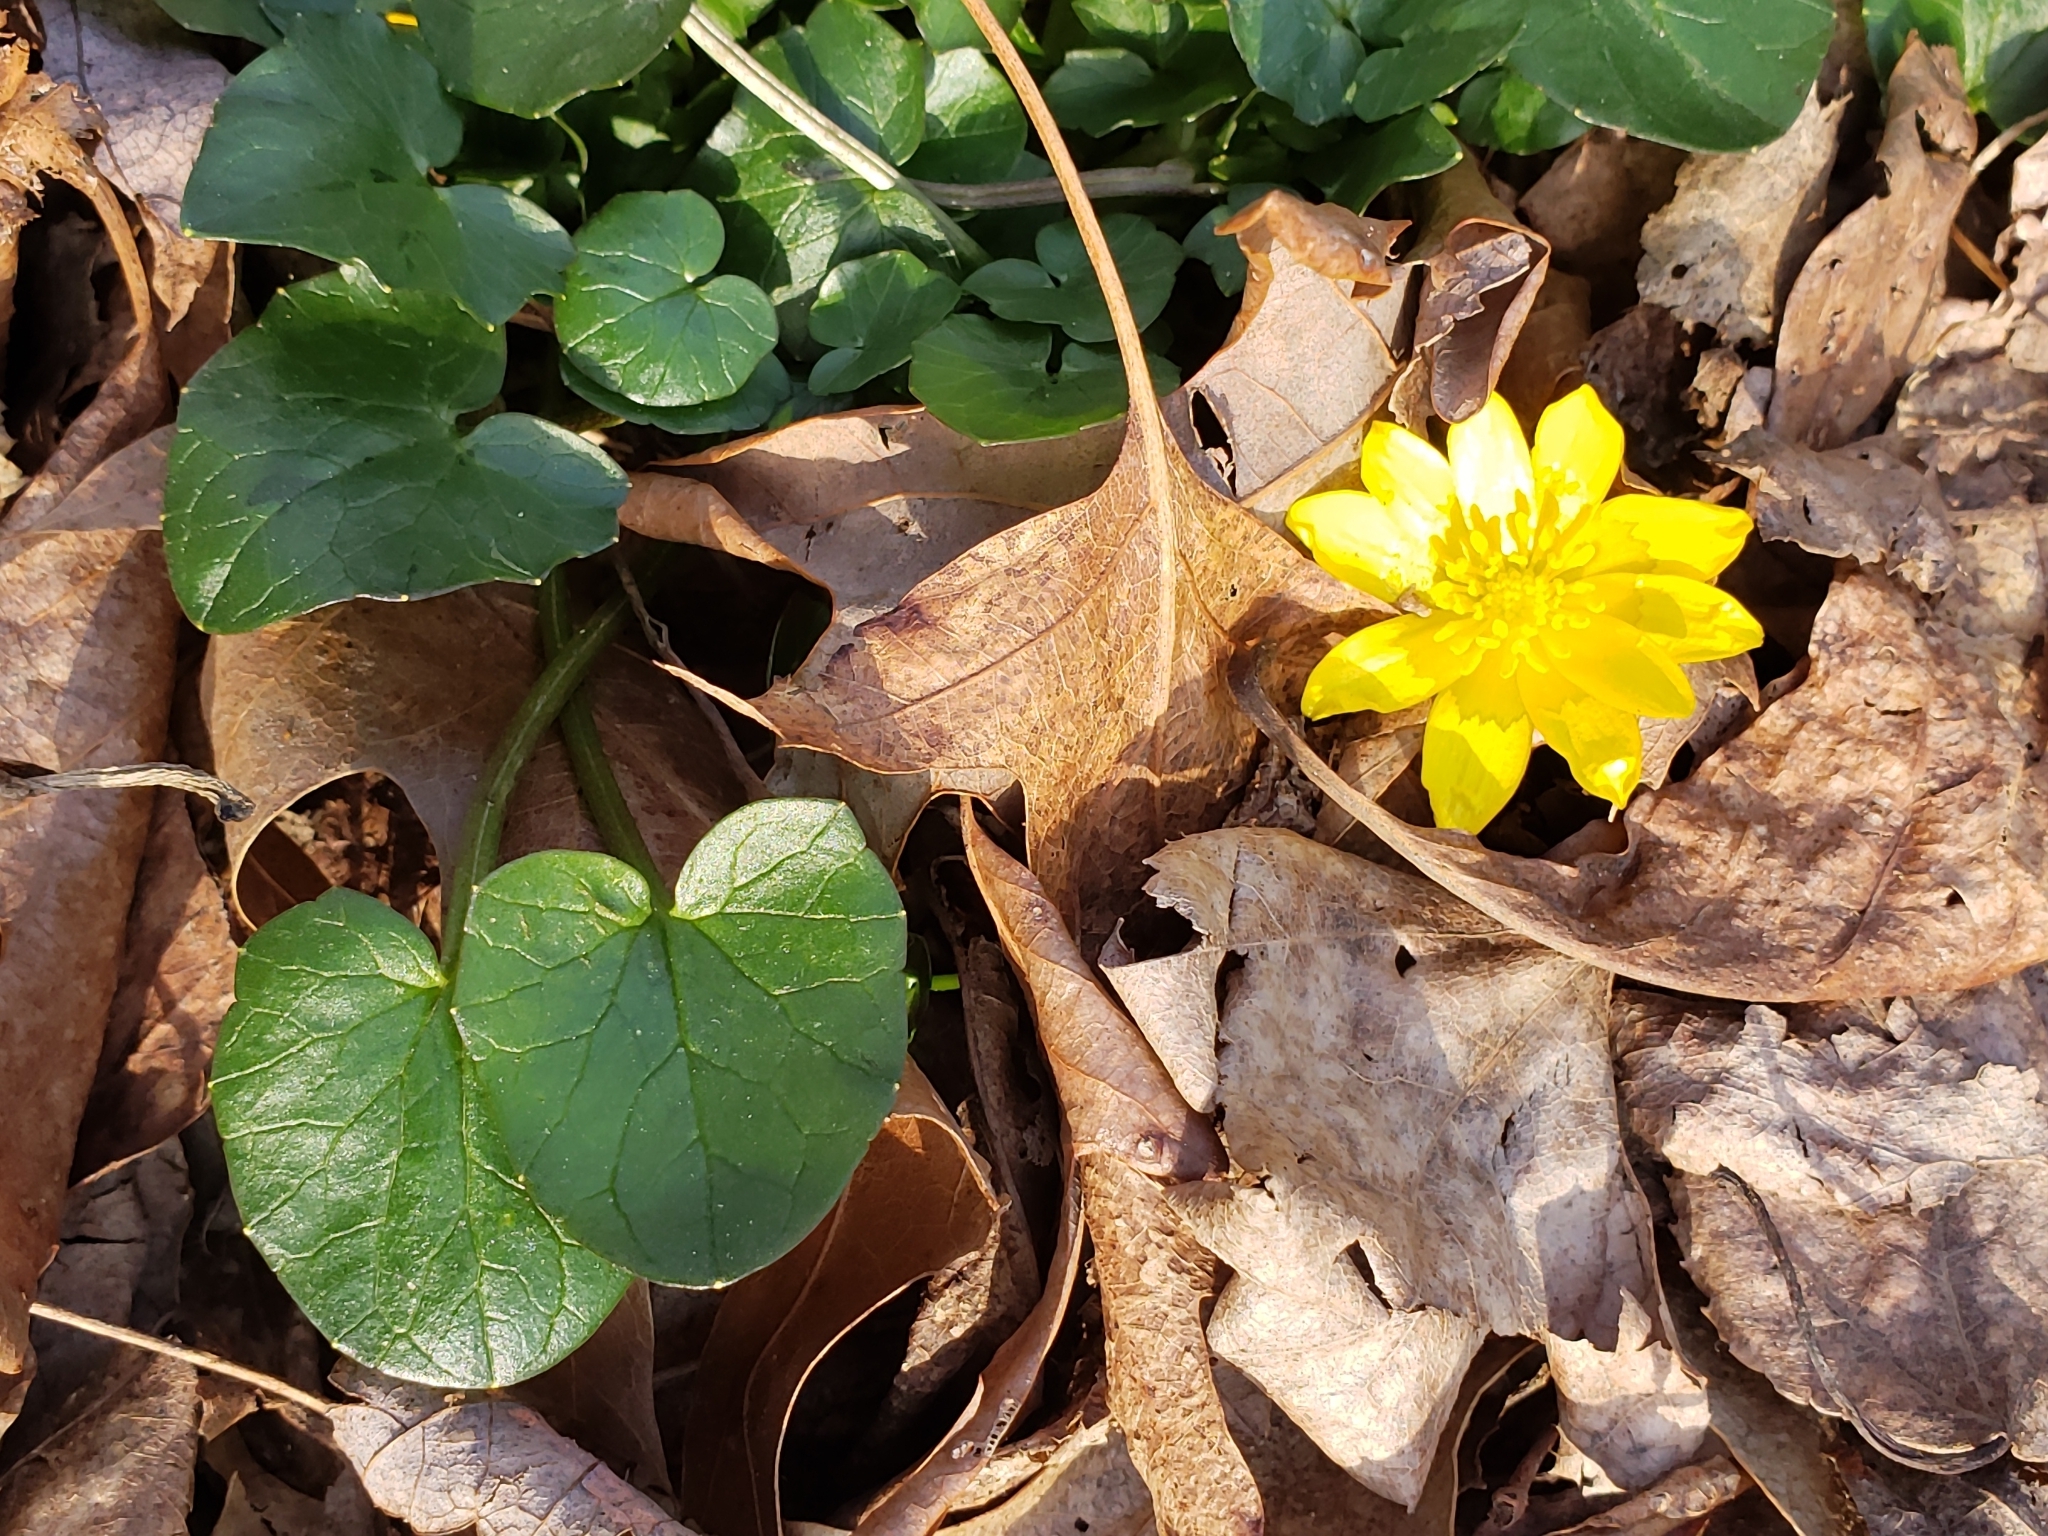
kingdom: Plantae
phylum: Tracheophyta
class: Magnoliopsida
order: Ranunculales
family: Ranunculaceae
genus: Ficaria
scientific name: Ficaria verna
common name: Lesser celandine
